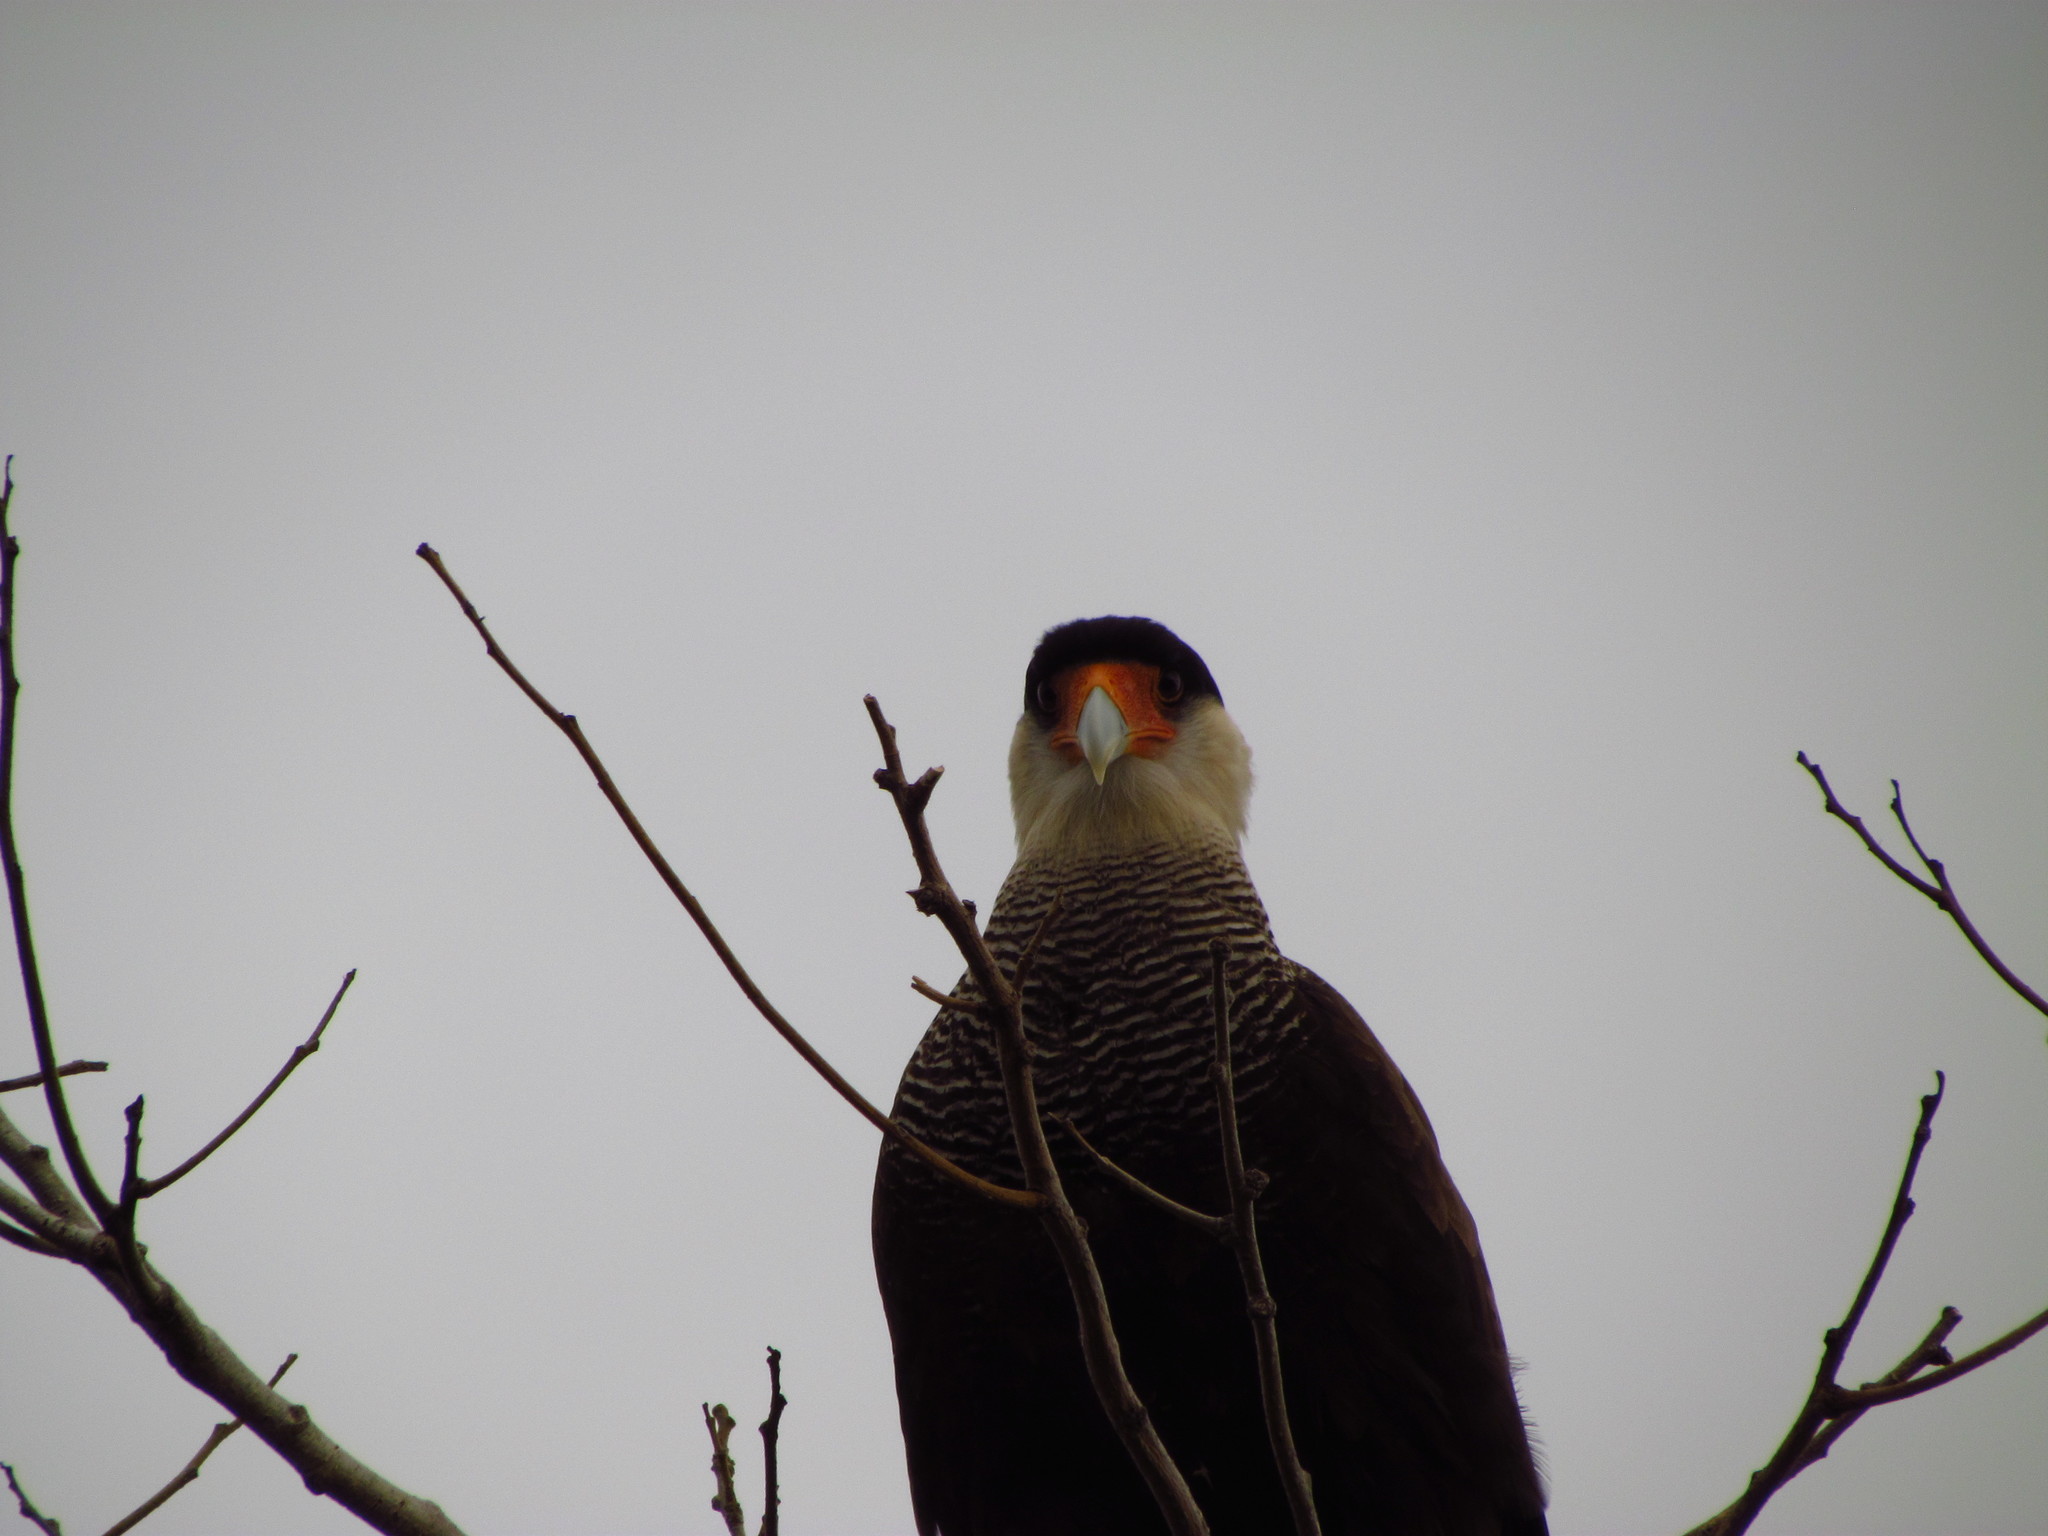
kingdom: Animalia
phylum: Chordata
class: Aves
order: Falconiformes
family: Falconidae
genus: Caracara
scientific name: Caracara plancus
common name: Southern caracara
